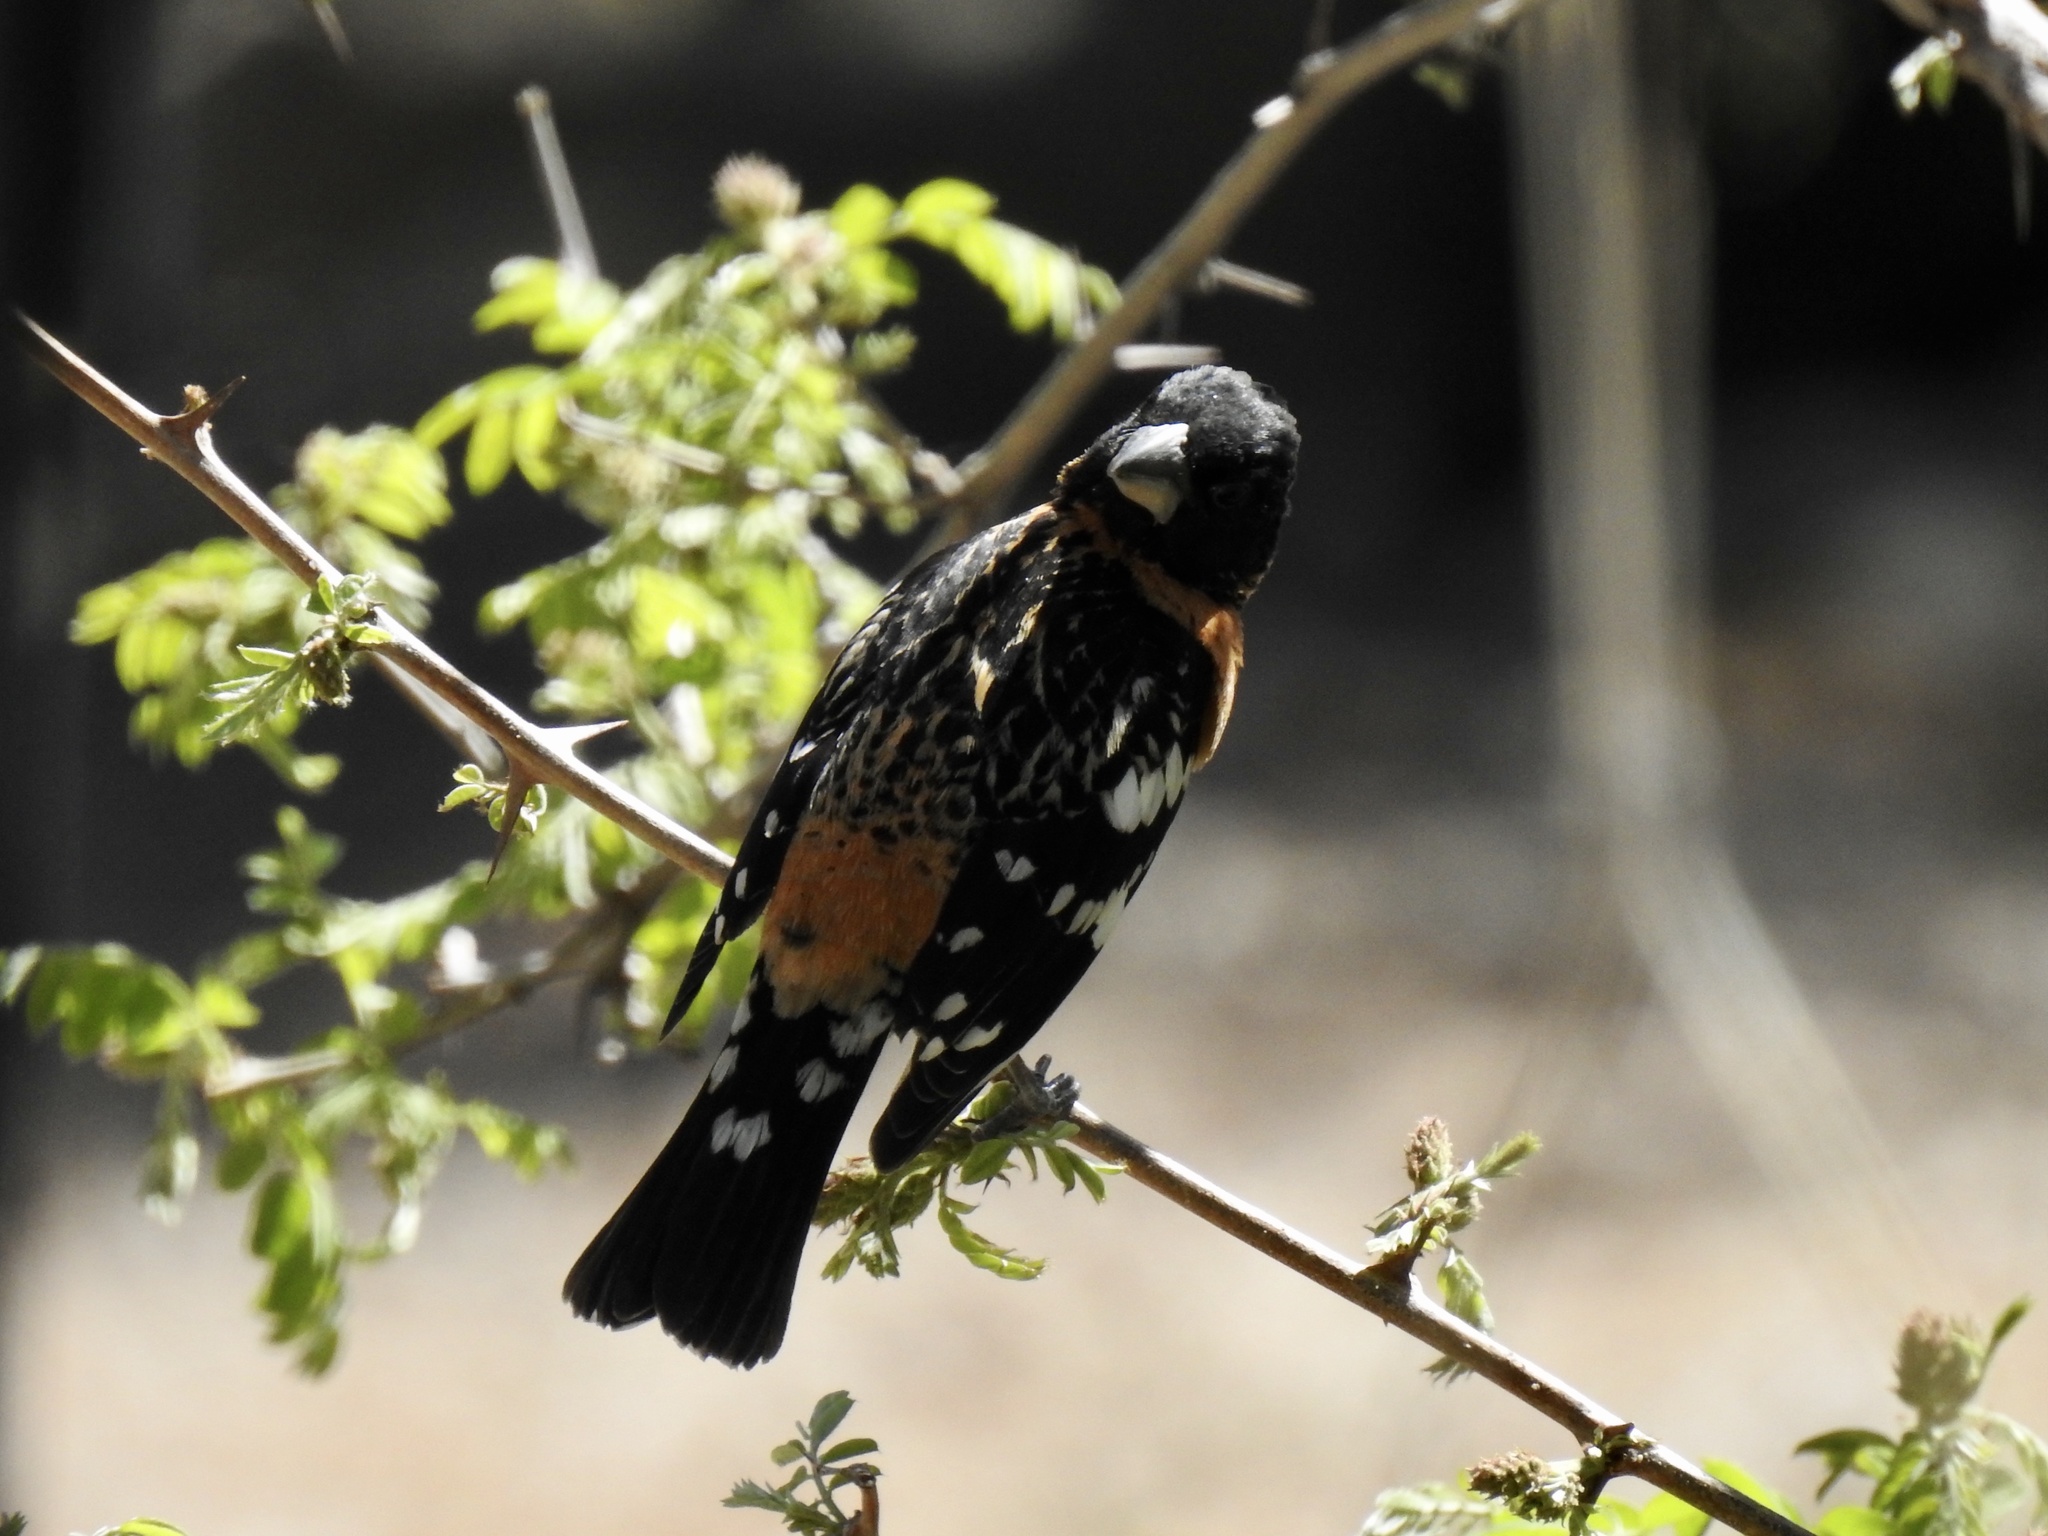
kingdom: Animalia
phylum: Chordata
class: Aves
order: Passeriformes
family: Cardinalidae
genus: Pheucticus
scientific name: Pheucticus melanocephalus
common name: Black-headed grosbeak
